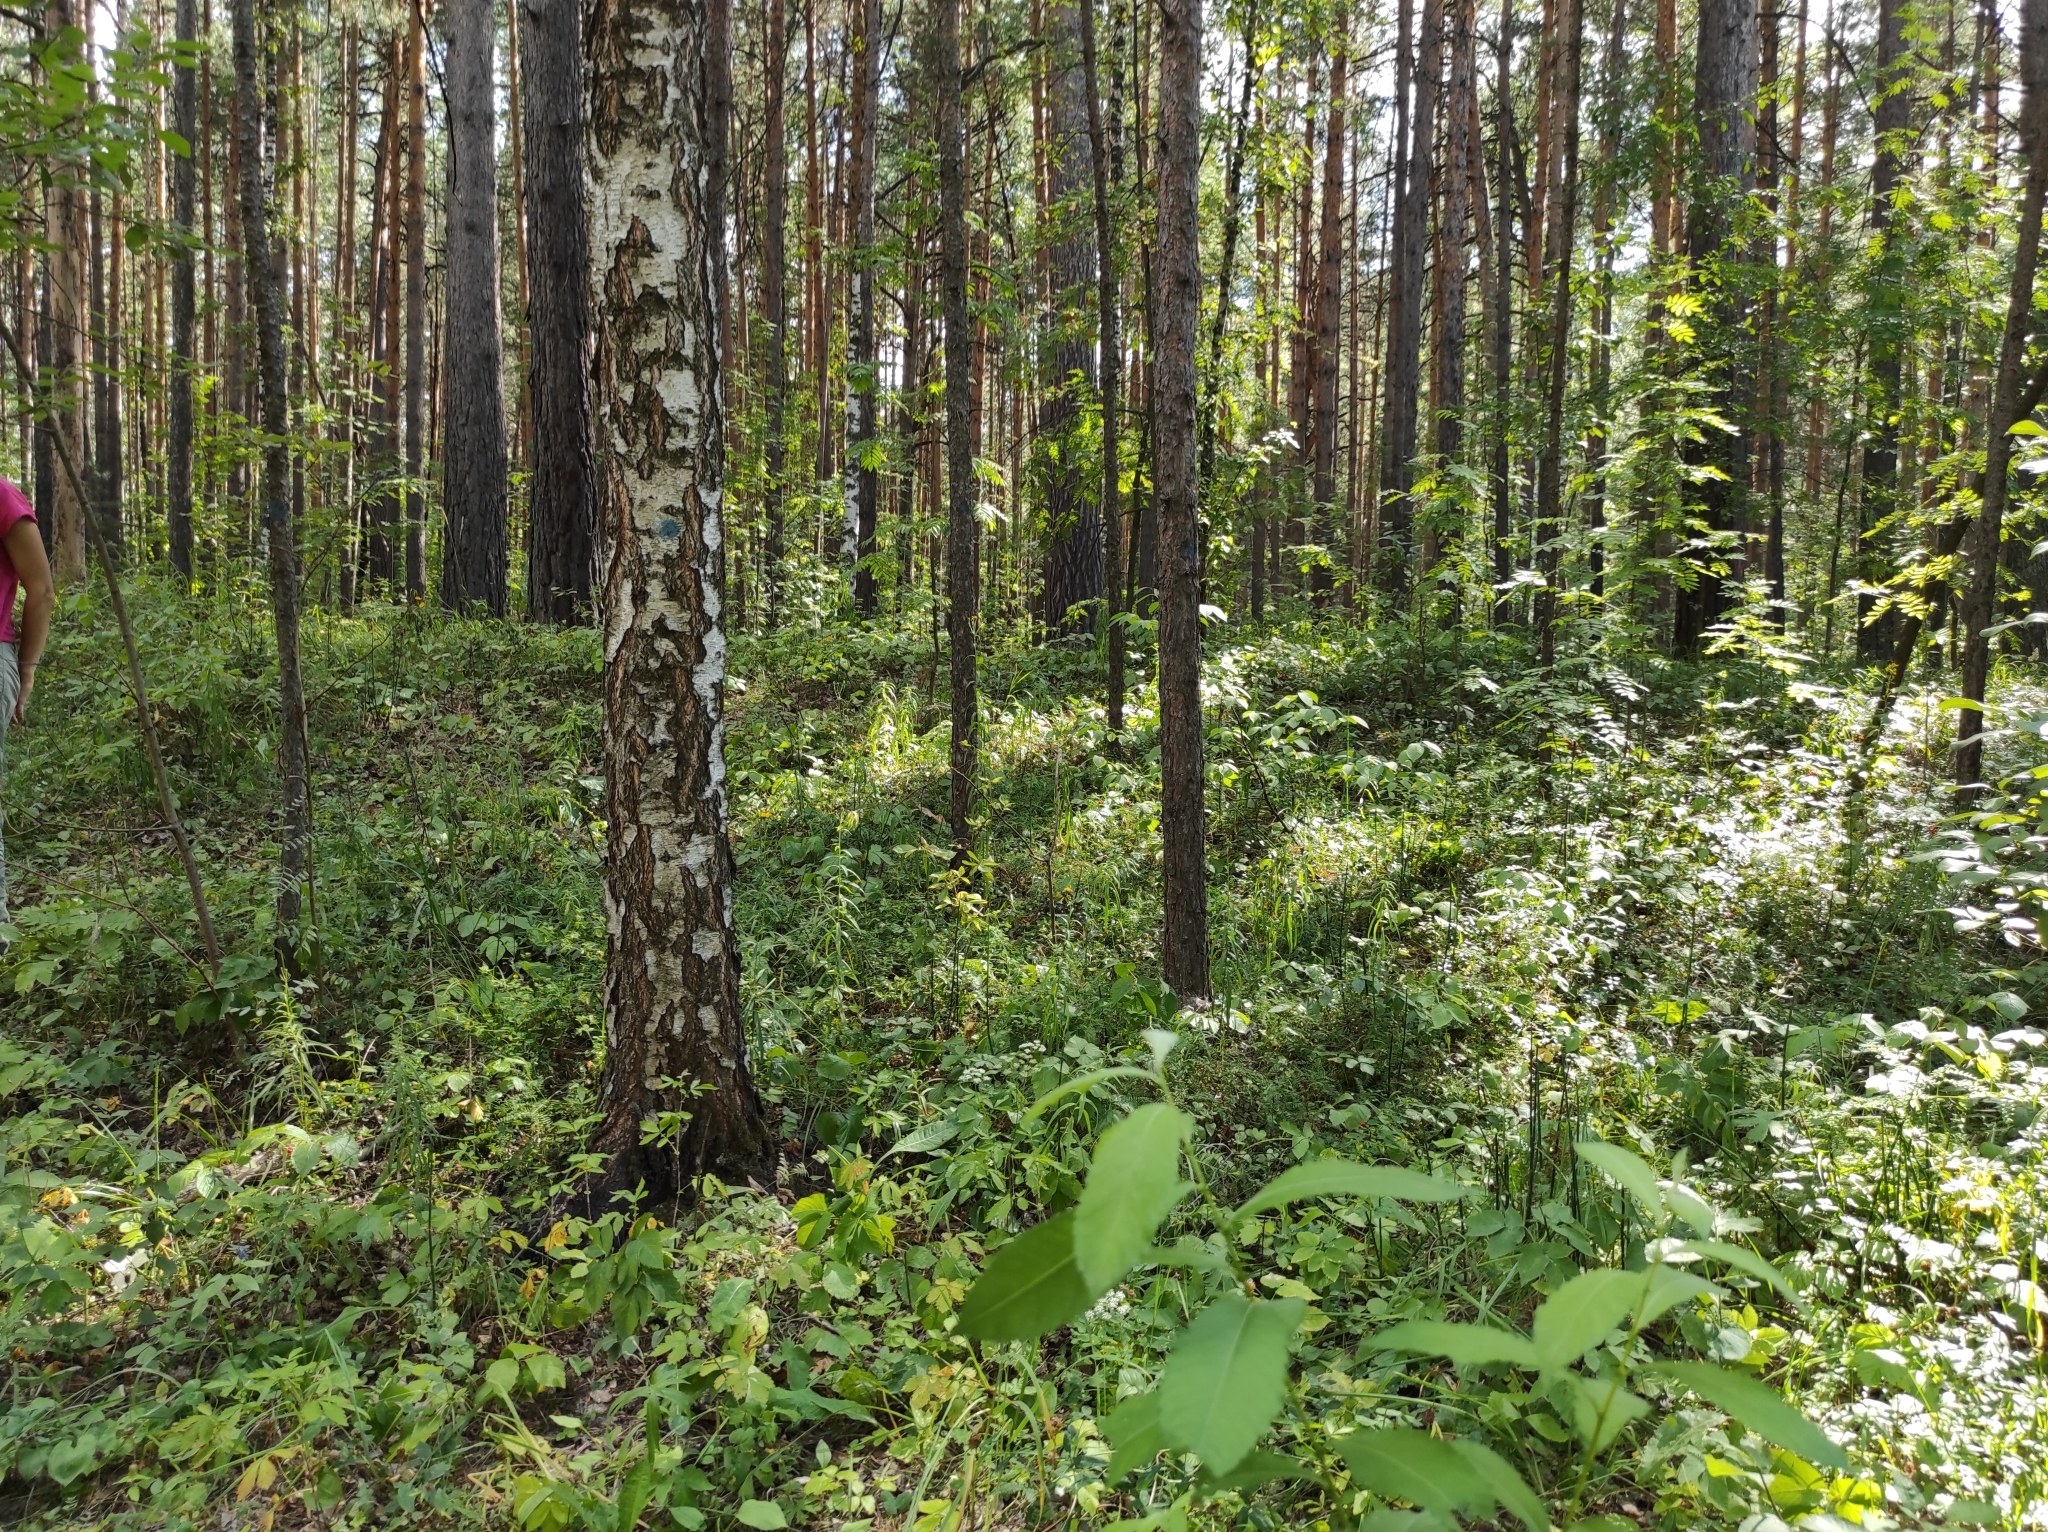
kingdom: Plantae
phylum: Tracheophyta
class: Pinopsida
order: Pinales
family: Pinaceae
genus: Pinus
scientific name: Pinus sylvestris
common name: Scots pine
